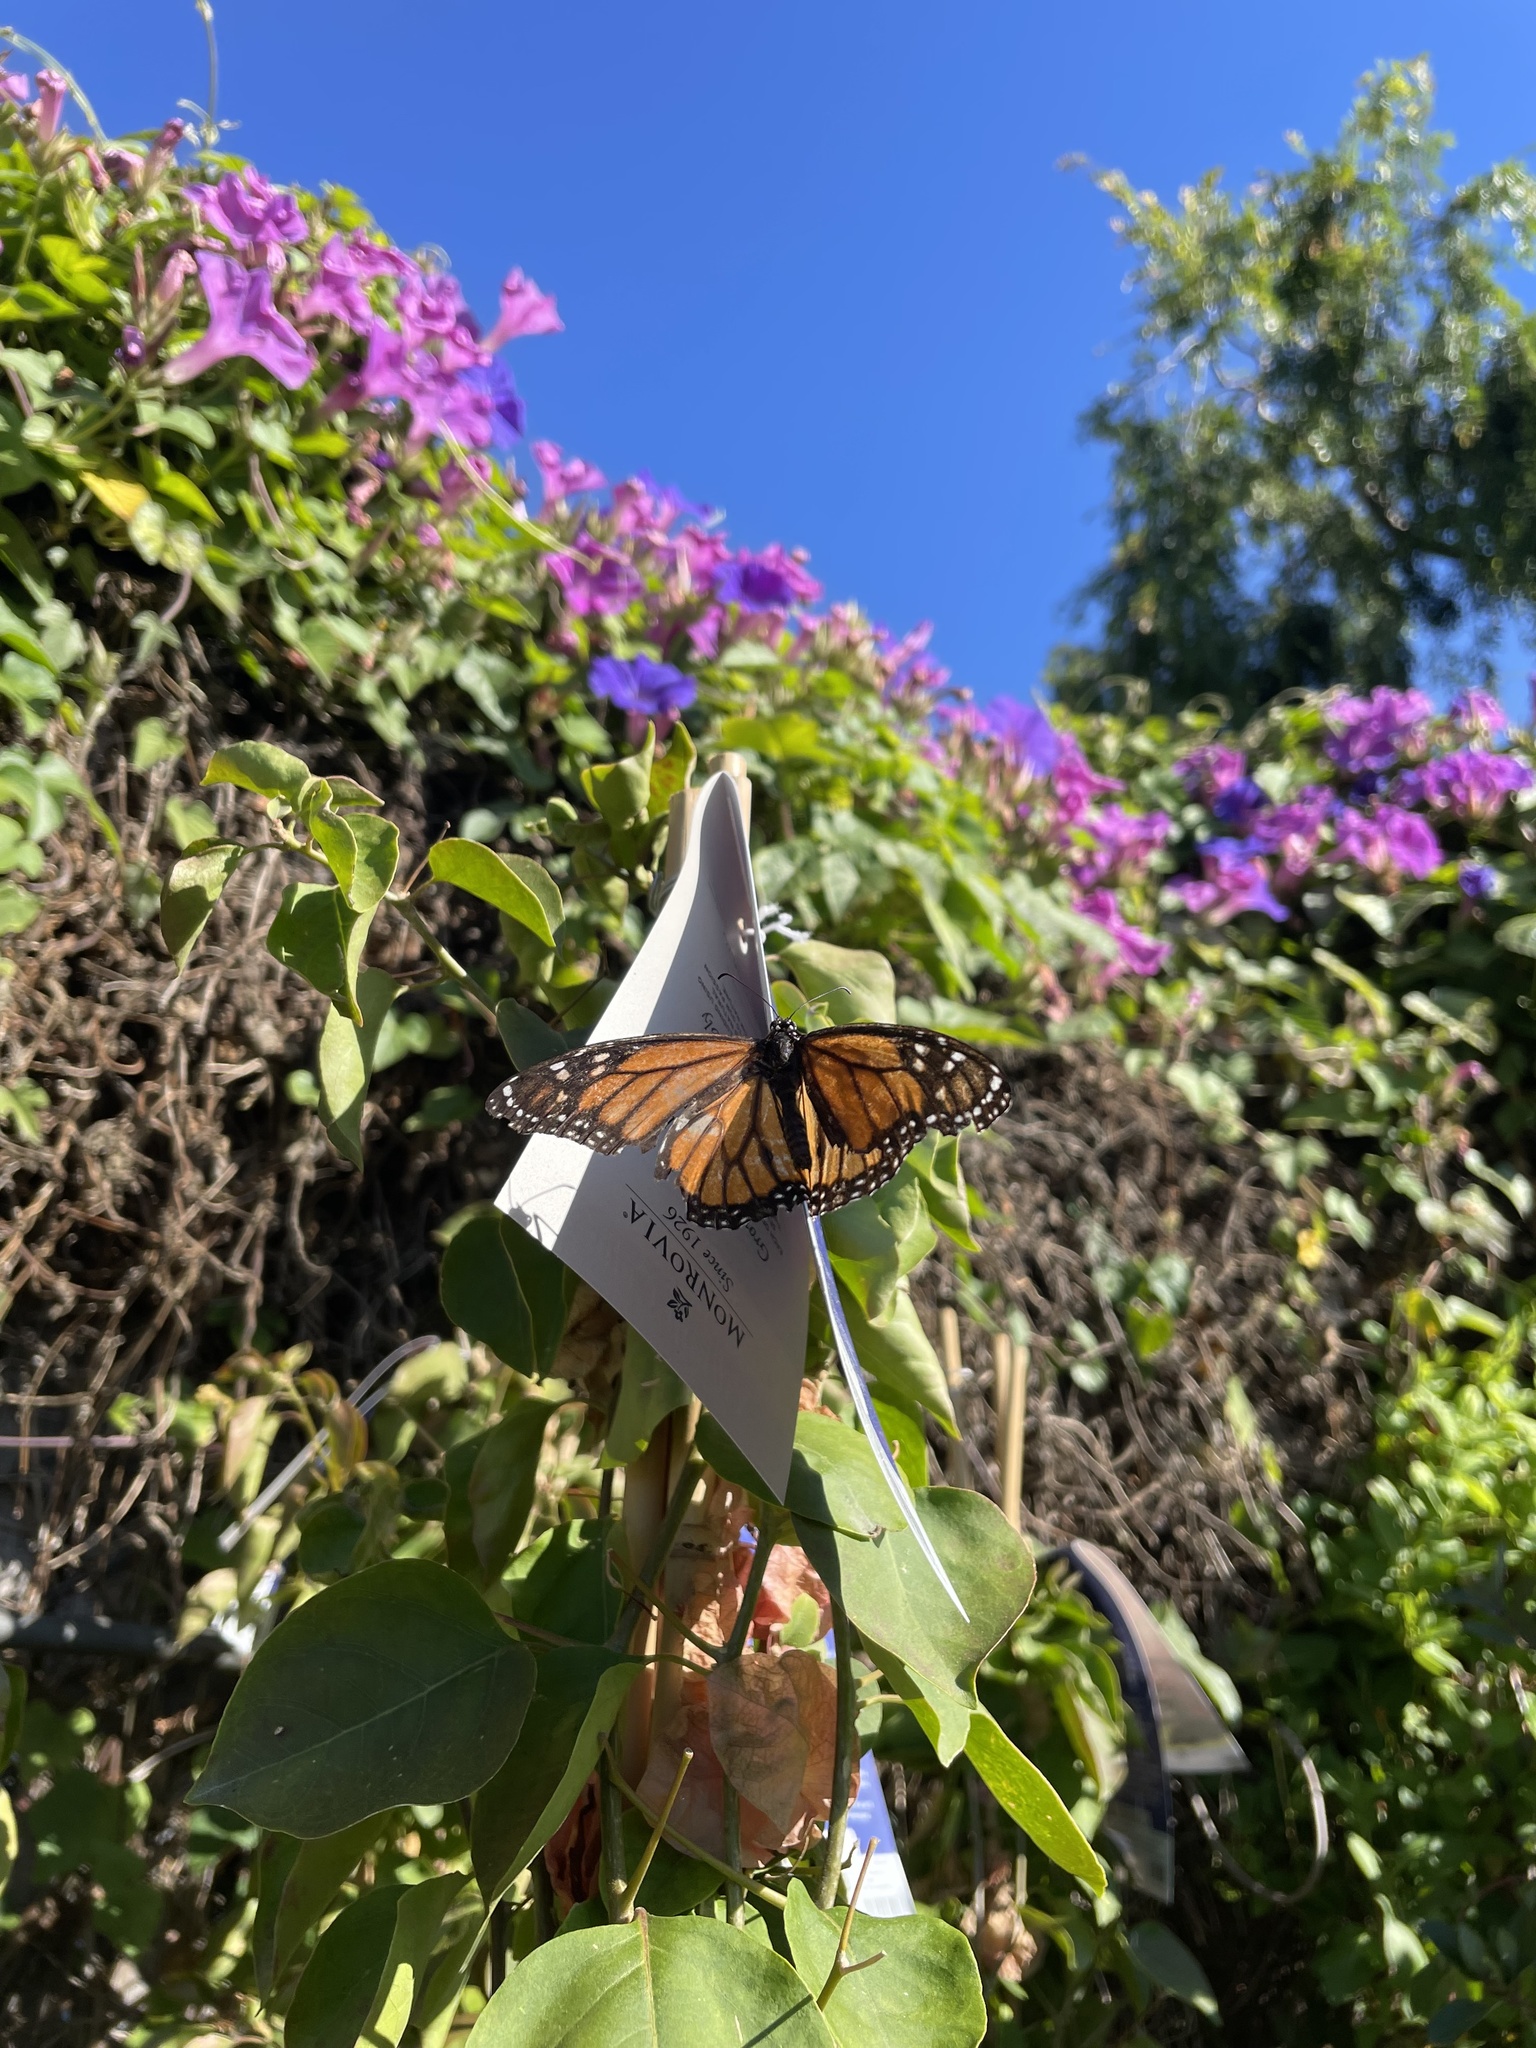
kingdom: Animalia
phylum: Arthropoda
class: Insecta
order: Lepidoptera
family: Nymphalidae
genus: Danaus
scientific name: Danaus plexippus
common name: Monarch
